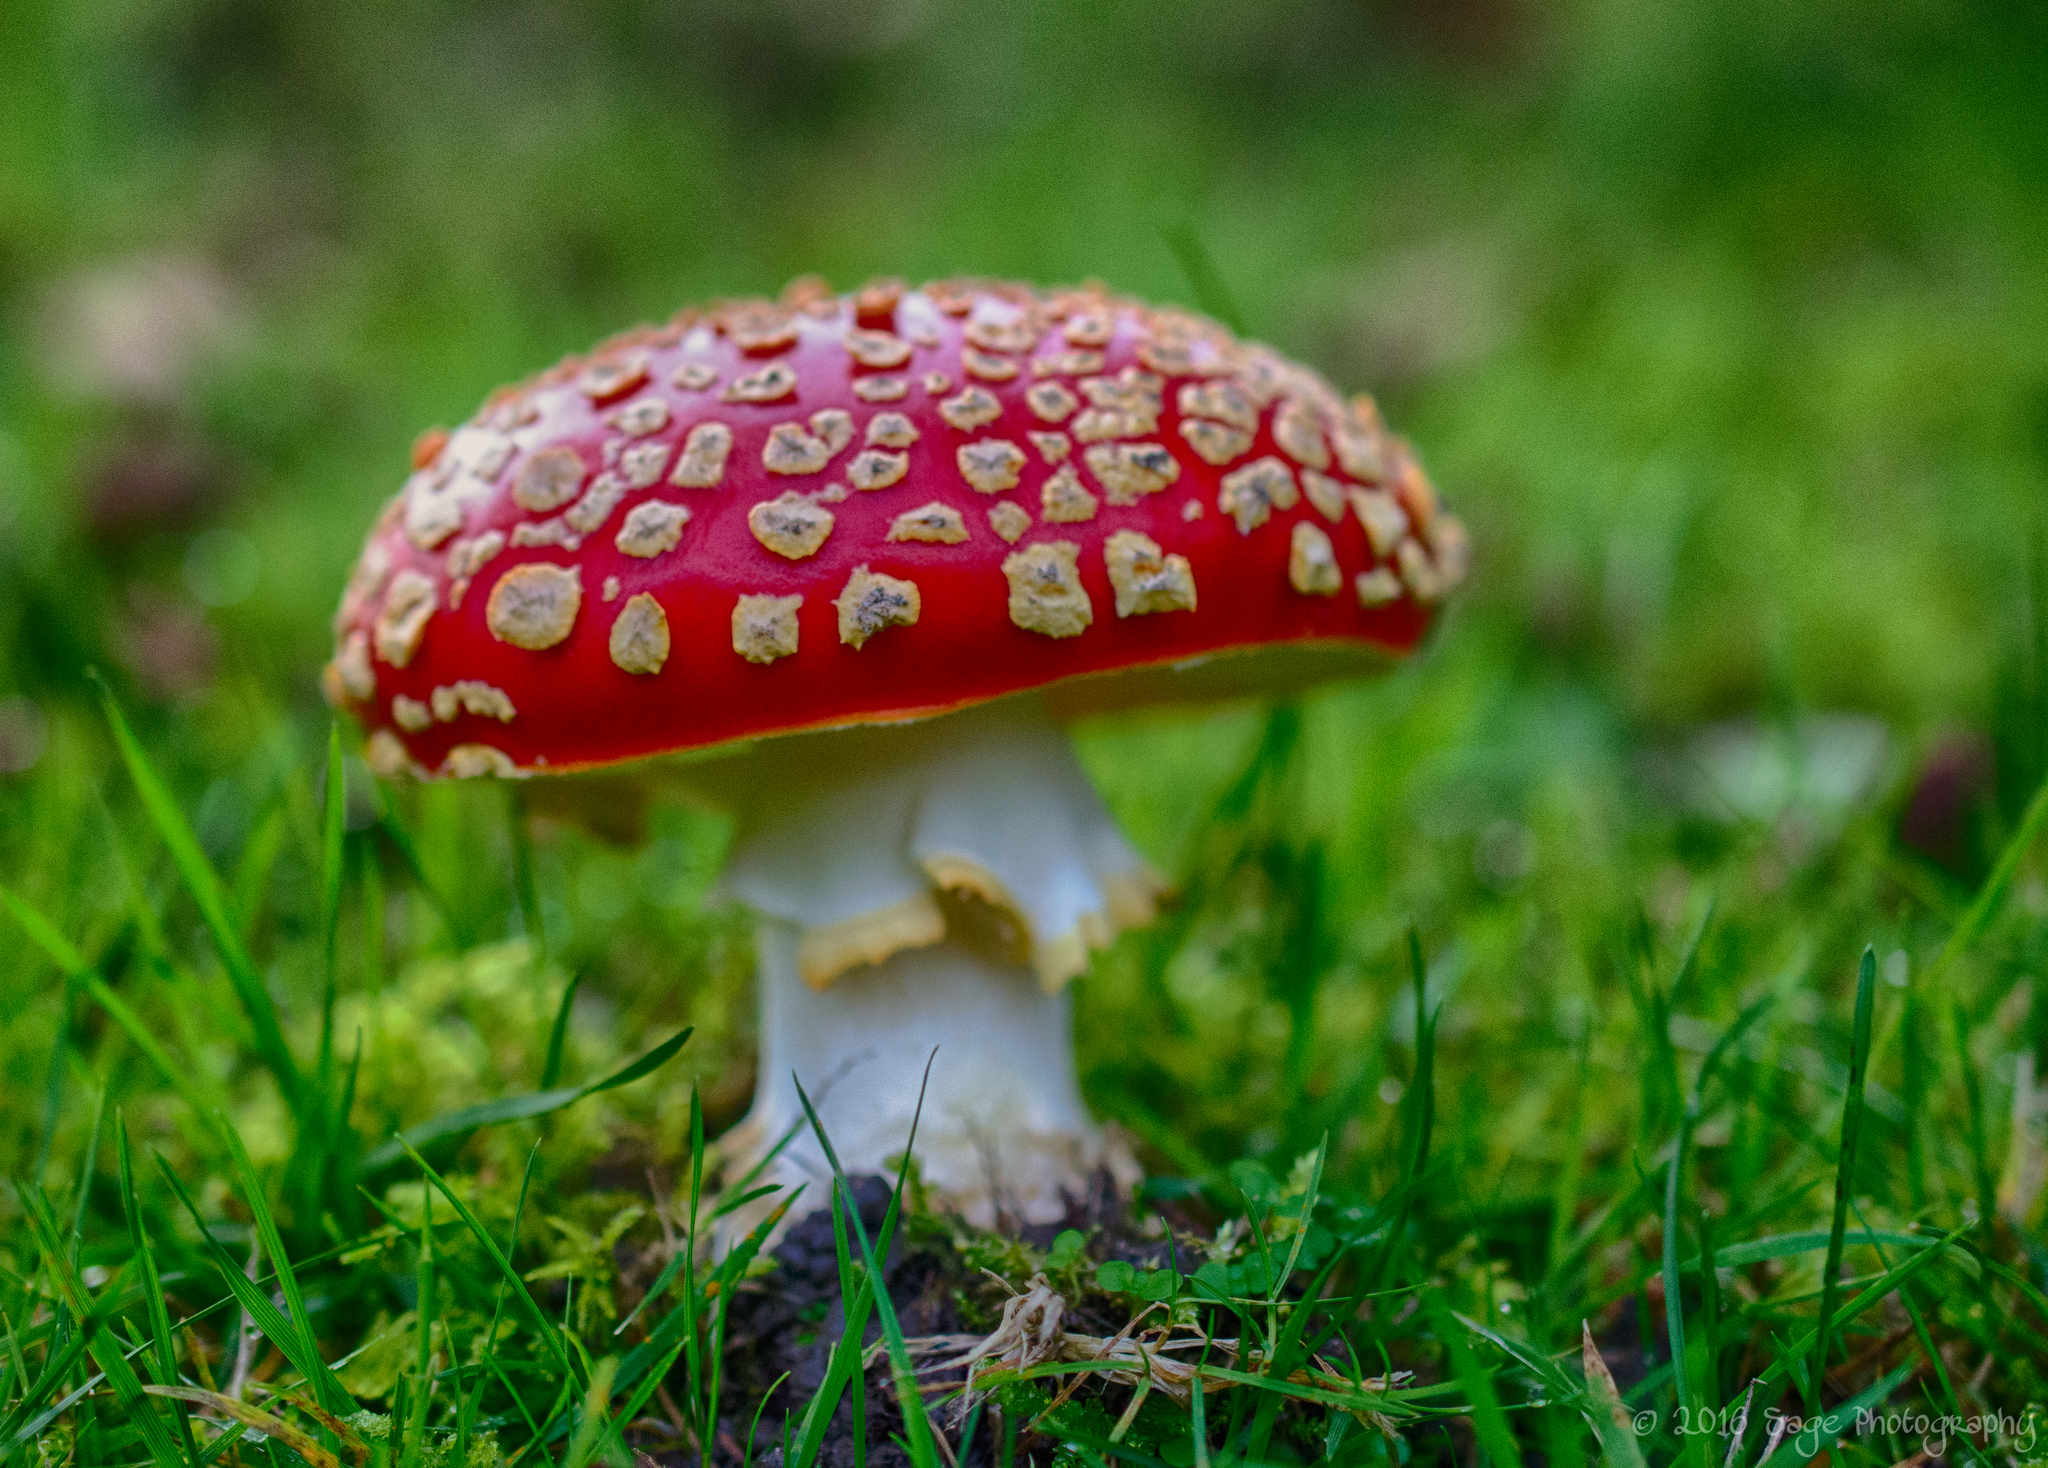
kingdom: Fungi
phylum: Basidiomycota
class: Agaricomycetes
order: Agaricales
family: Amanitaceae
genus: Amanita
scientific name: Amanita muscaria
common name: Fly agaric
